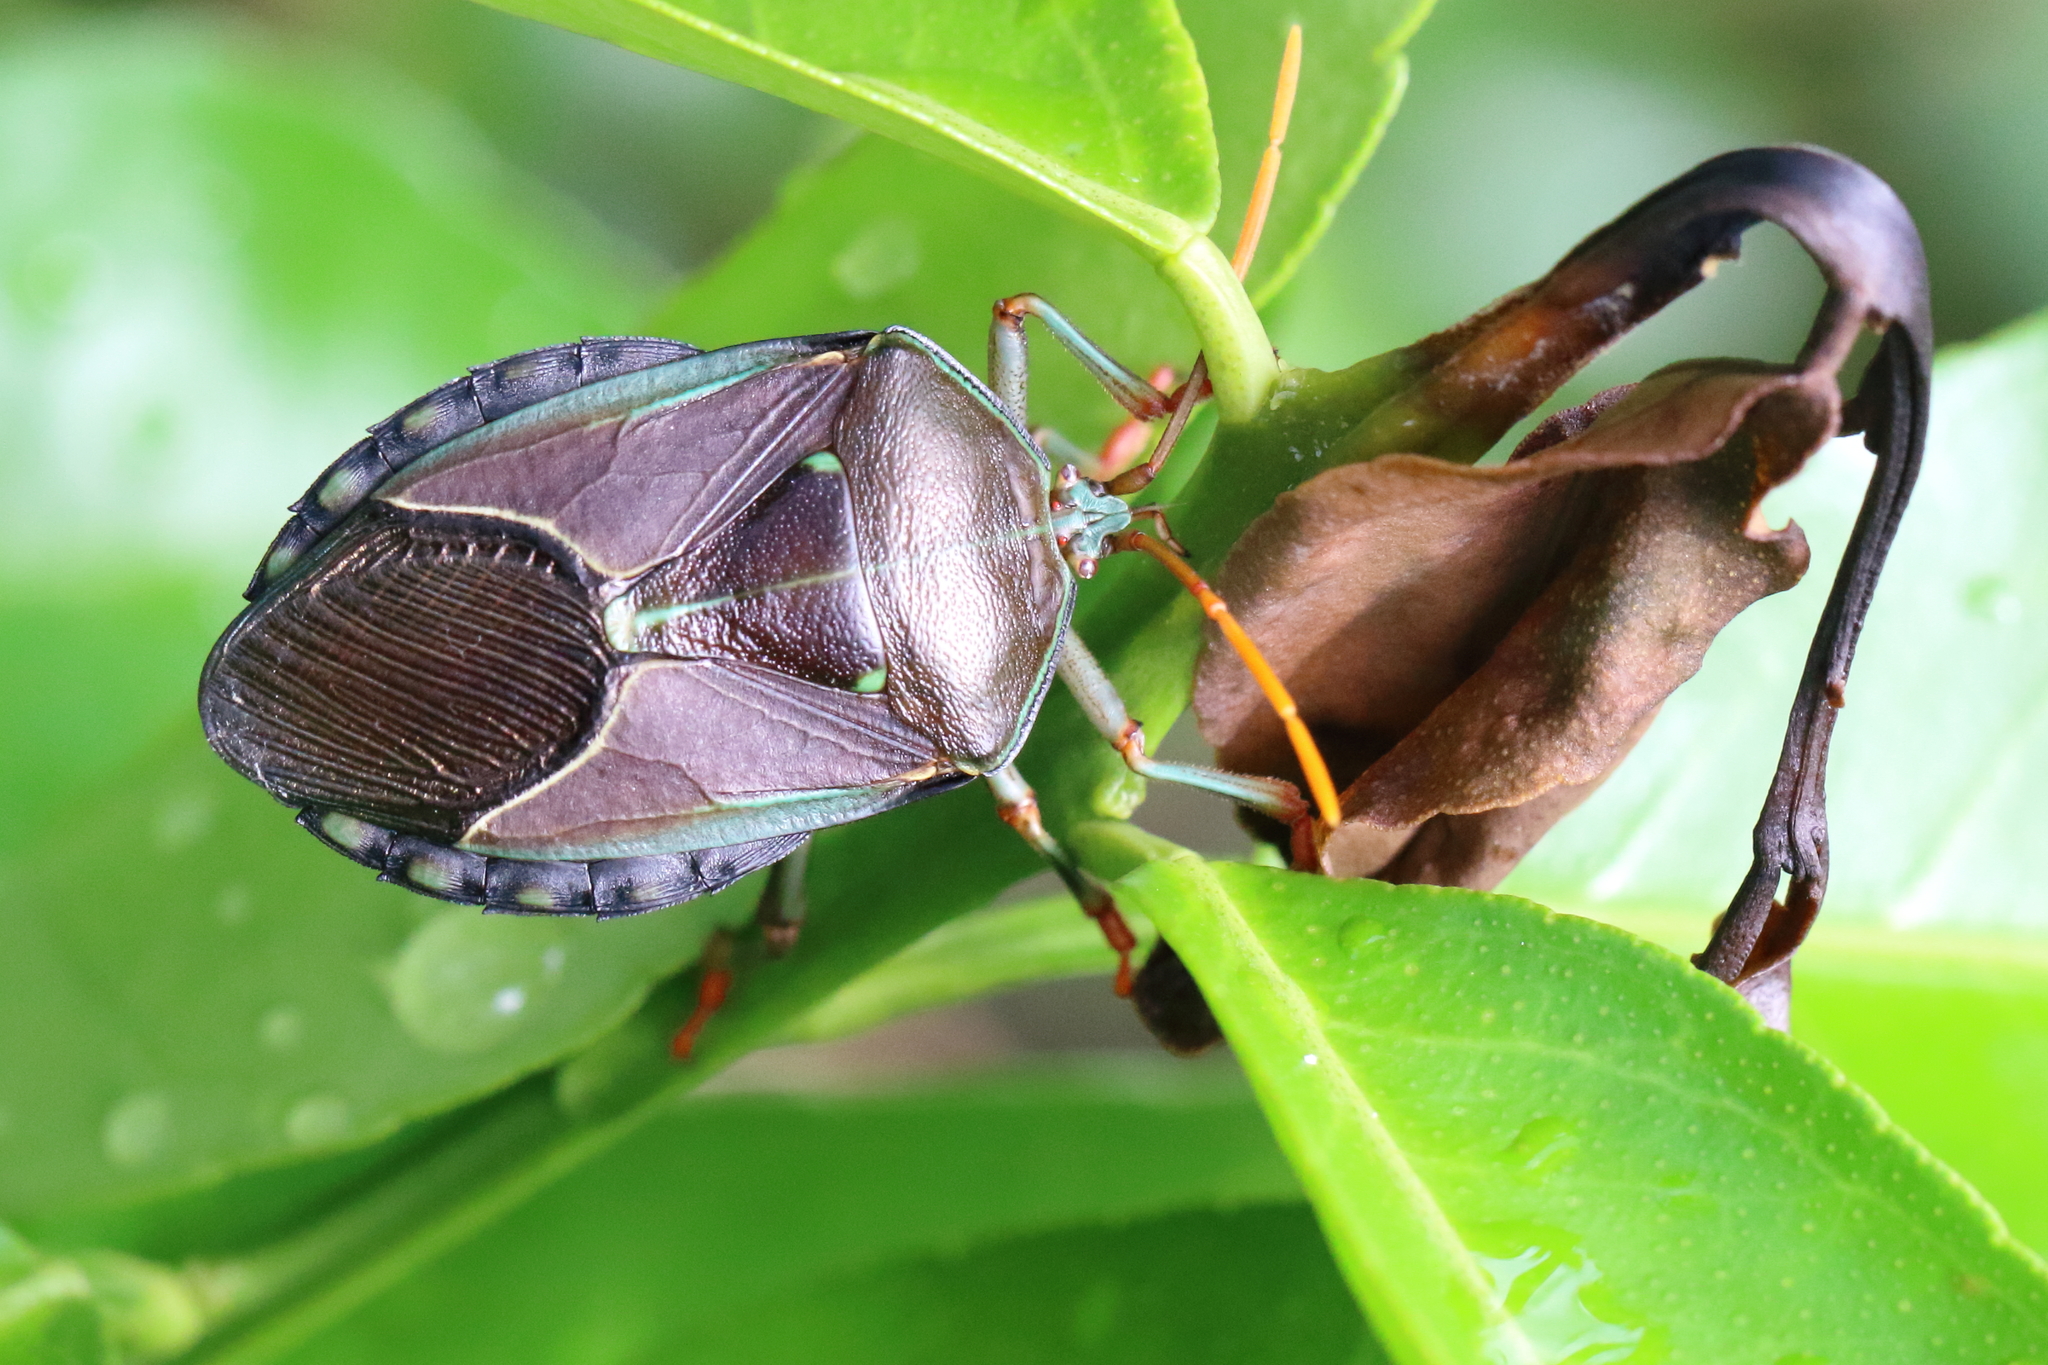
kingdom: Animalia
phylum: Arthropoda
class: Insecta
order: Hemiptera
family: Tessaratomidae
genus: Musgraveia
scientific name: Musgraveia sulciventris
